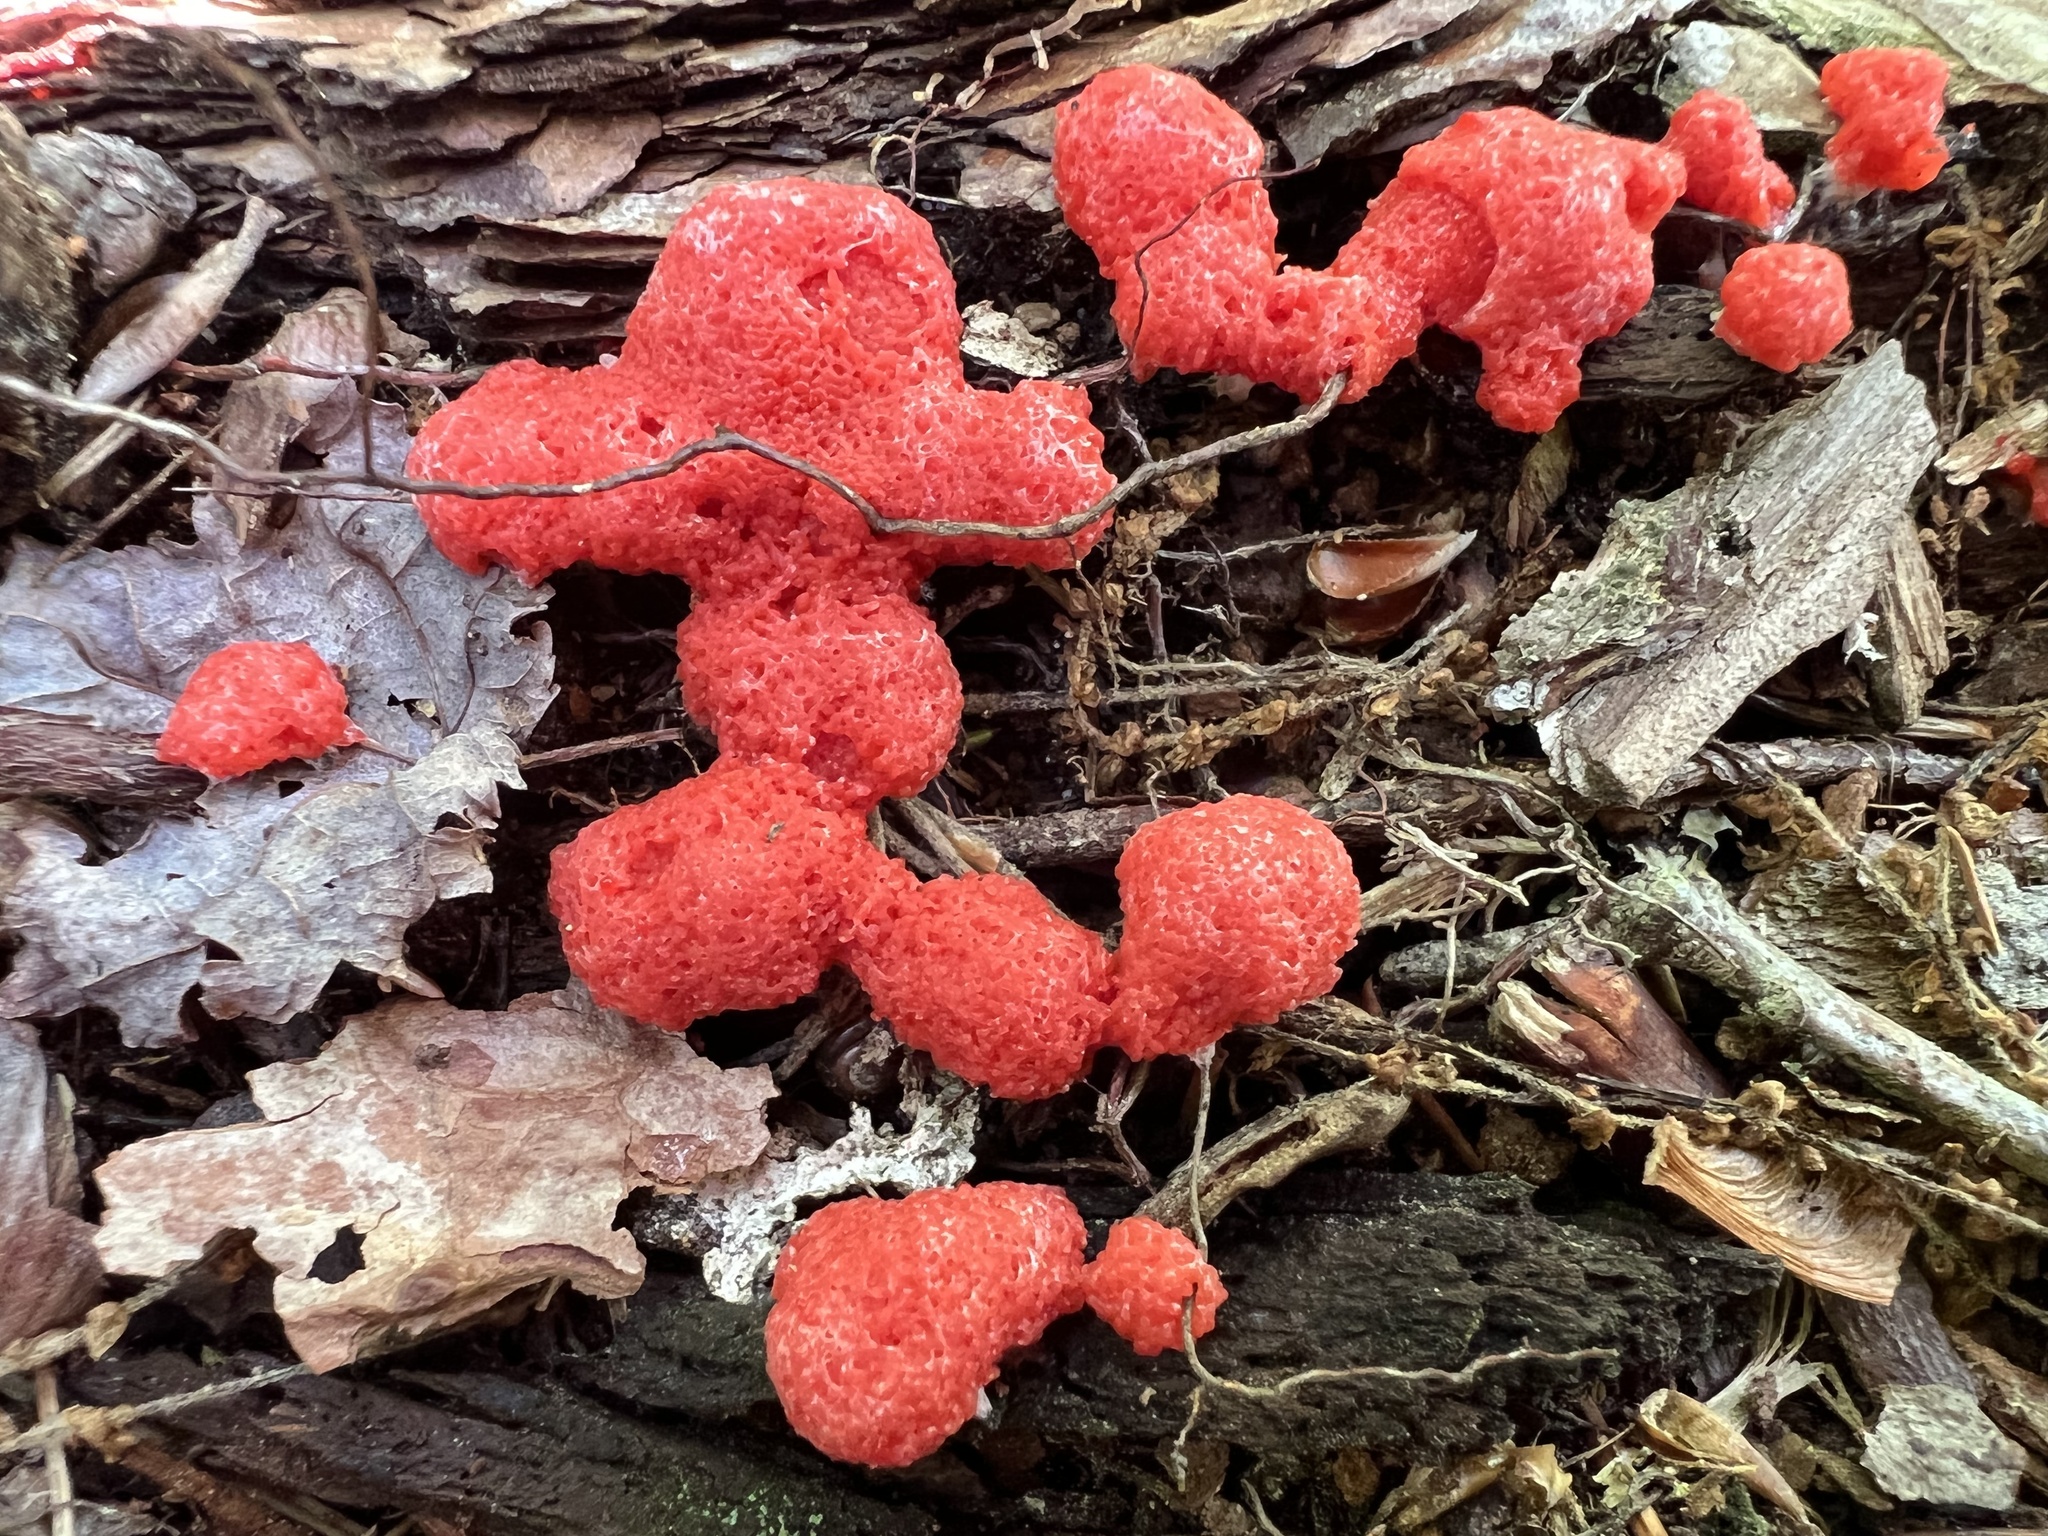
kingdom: Protozoa
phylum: Mycetozoa
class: Myxomycetes
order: Cribrariales
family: Tubiferaceae
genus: Tubifera
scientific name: Tubifera ferruginosa
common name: Red raspberry slime mold
